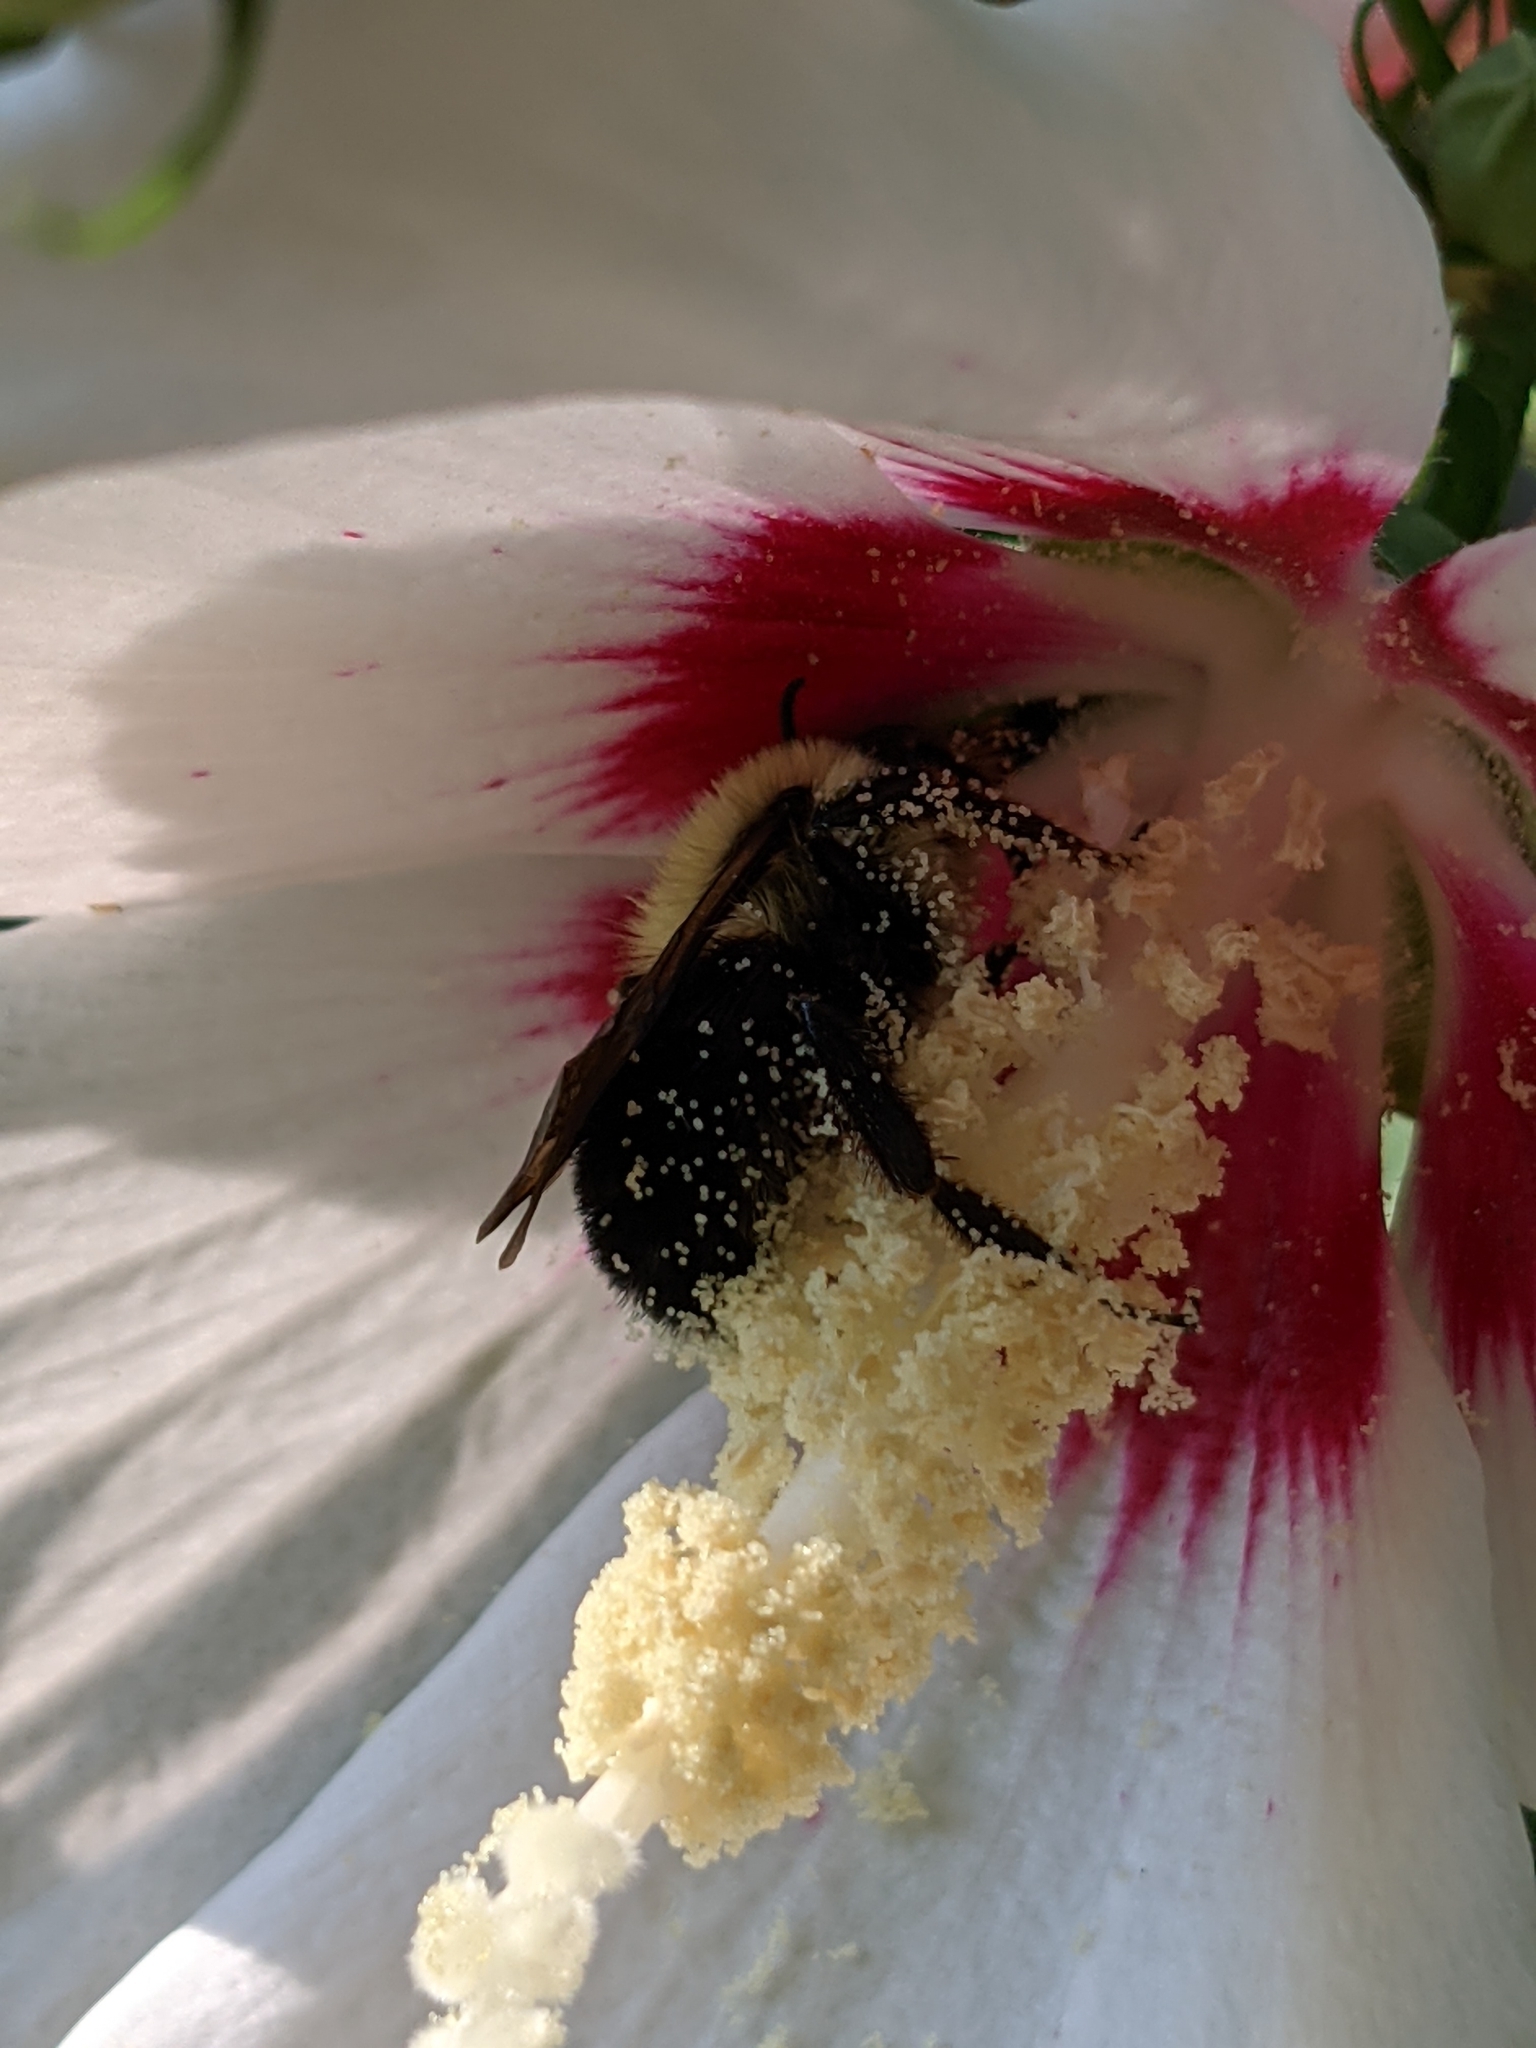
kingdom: Animalia
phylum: Arthropoda
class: Insecta
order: Hymenoptera
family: Apidae
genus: Bombus
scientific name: Bombus bimaculatus
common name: Two-spotted bumble bee
